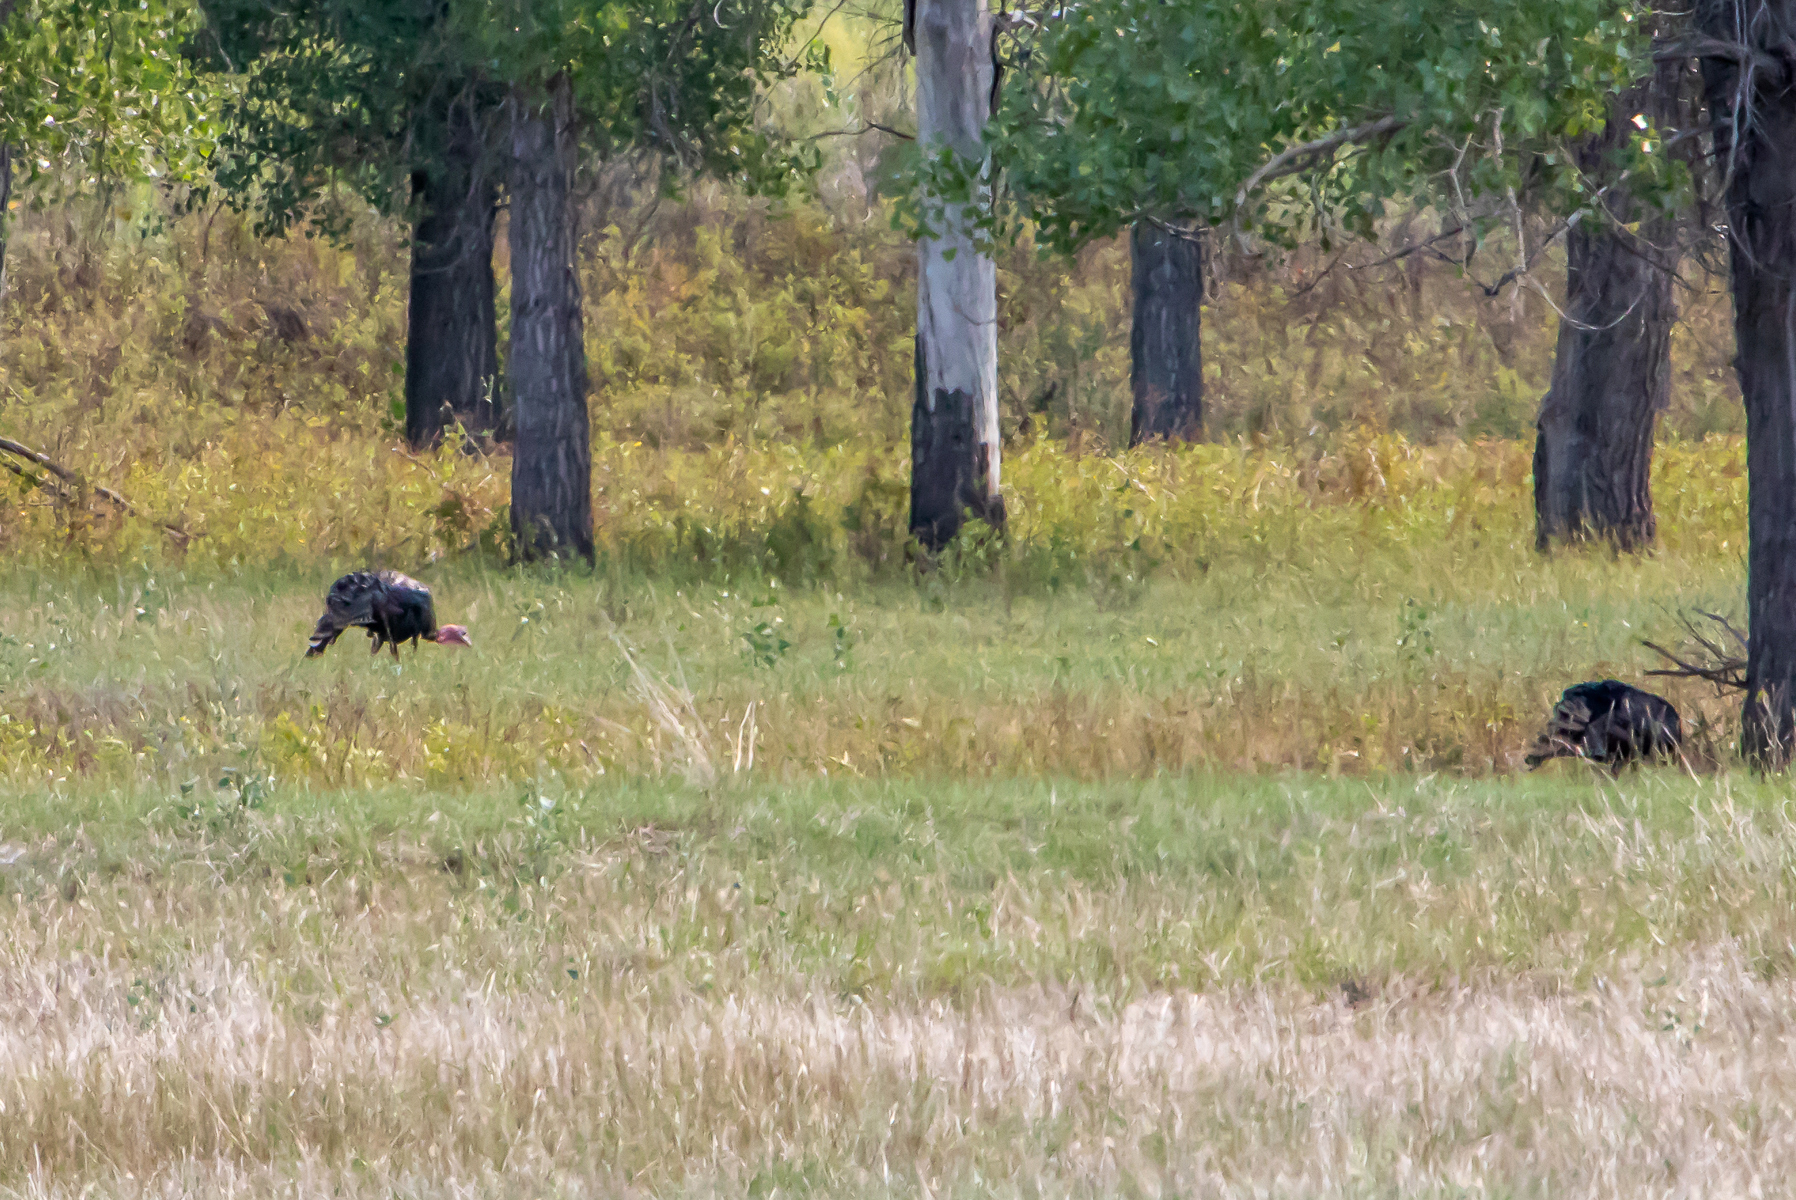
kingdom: Animalia
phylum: Chordata
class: Aves
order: Galliformes
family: Phasianidae
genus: Meleagris
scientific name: Meleagris gallopavo
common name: Wild turkey
